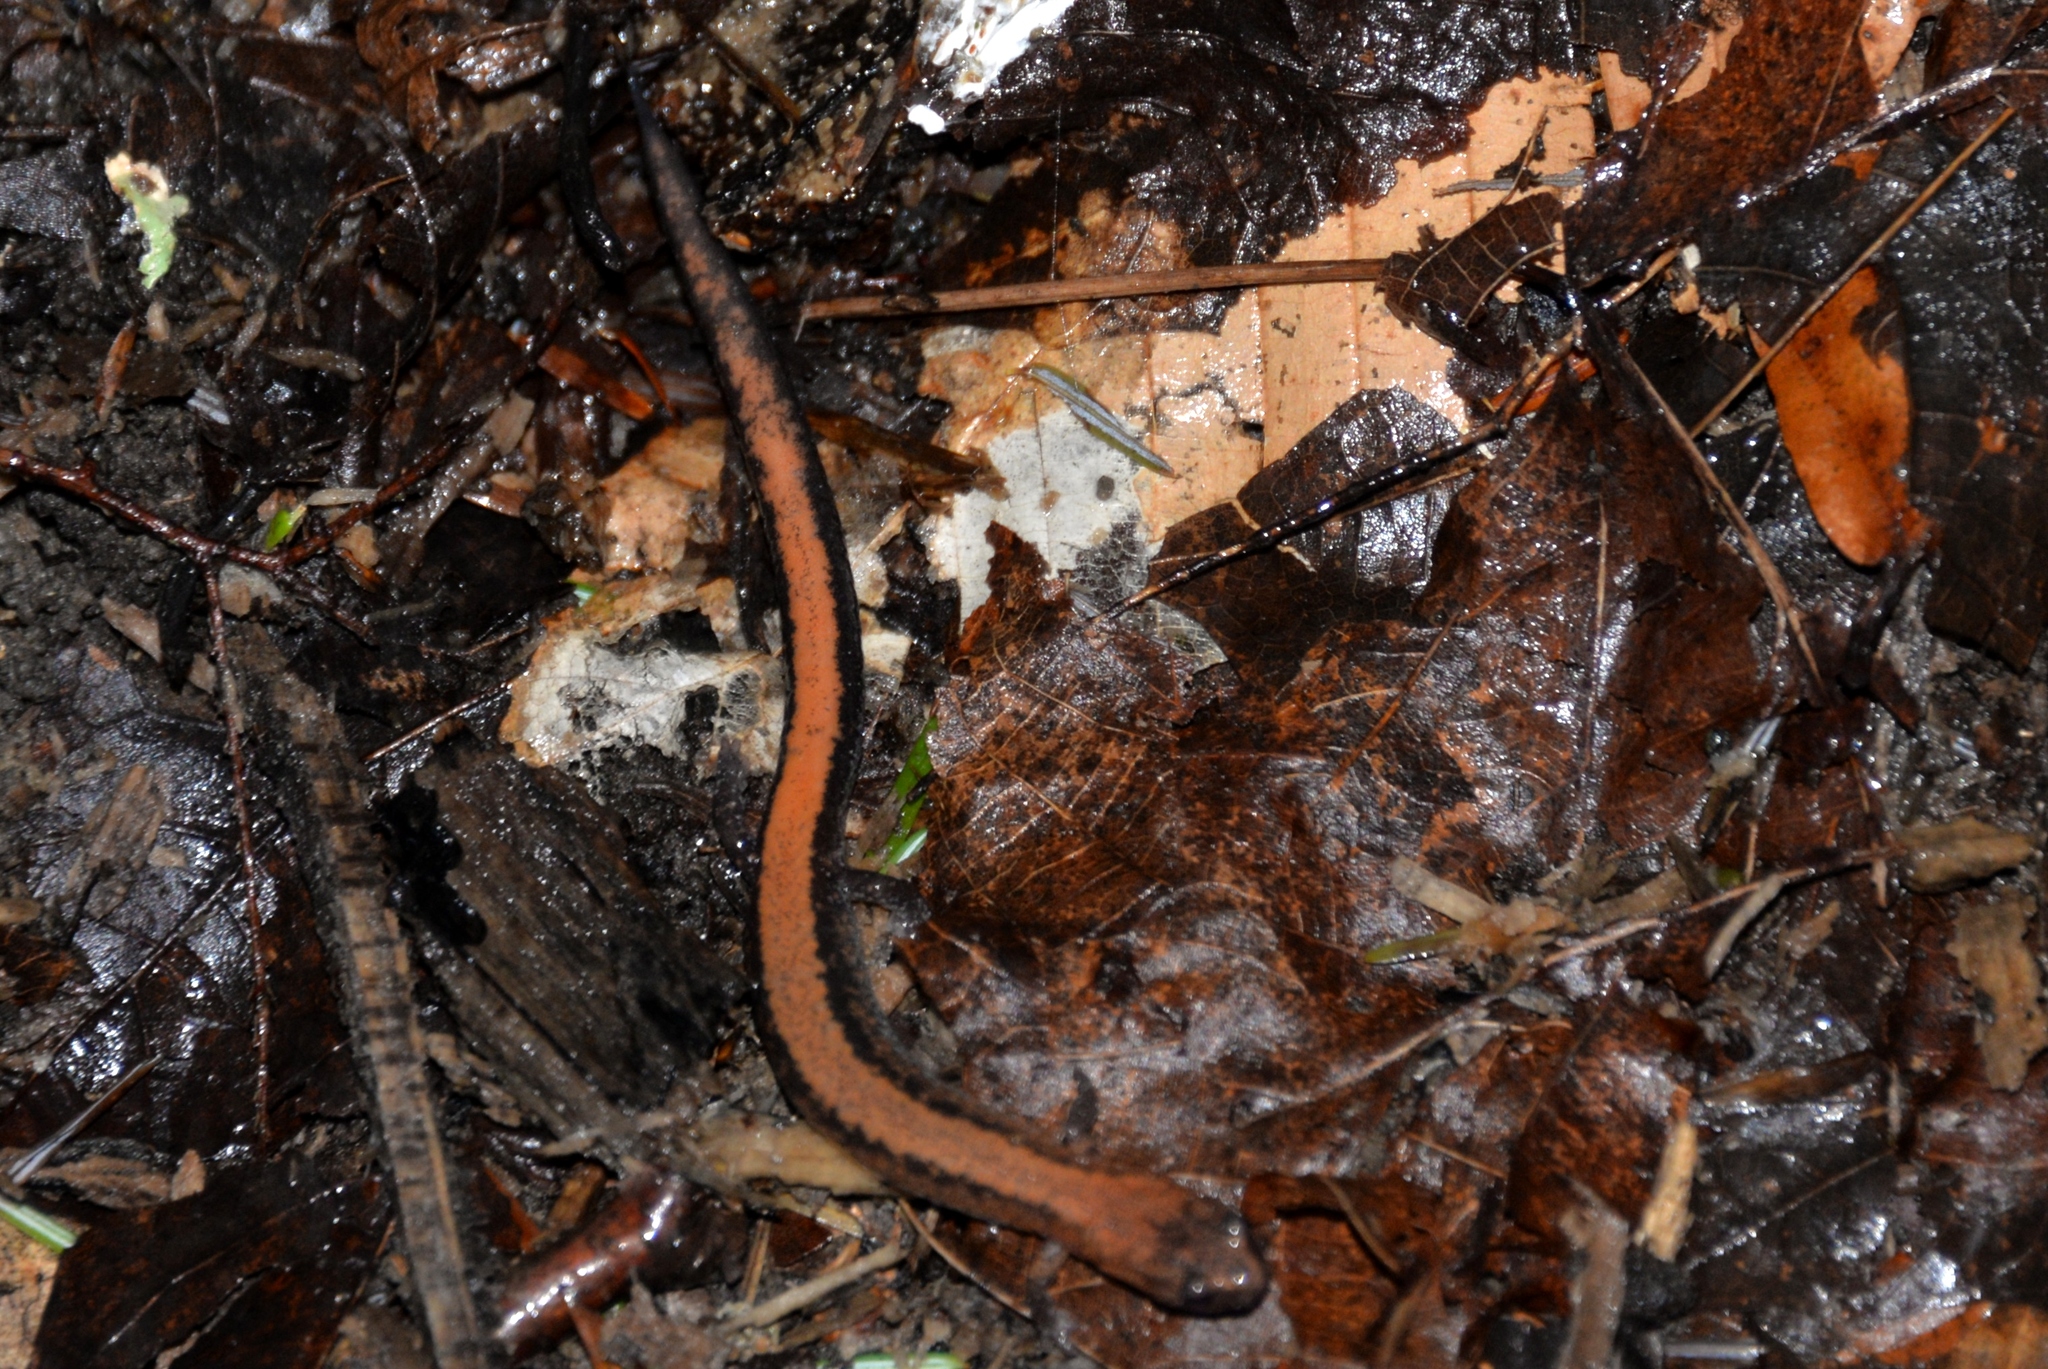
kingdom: Animalia
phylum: Chordata
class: Amphibia
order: Caudata
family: Plethodontidae
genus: Plethodon
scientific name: Plethodon cinereus
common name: Redback salamander
